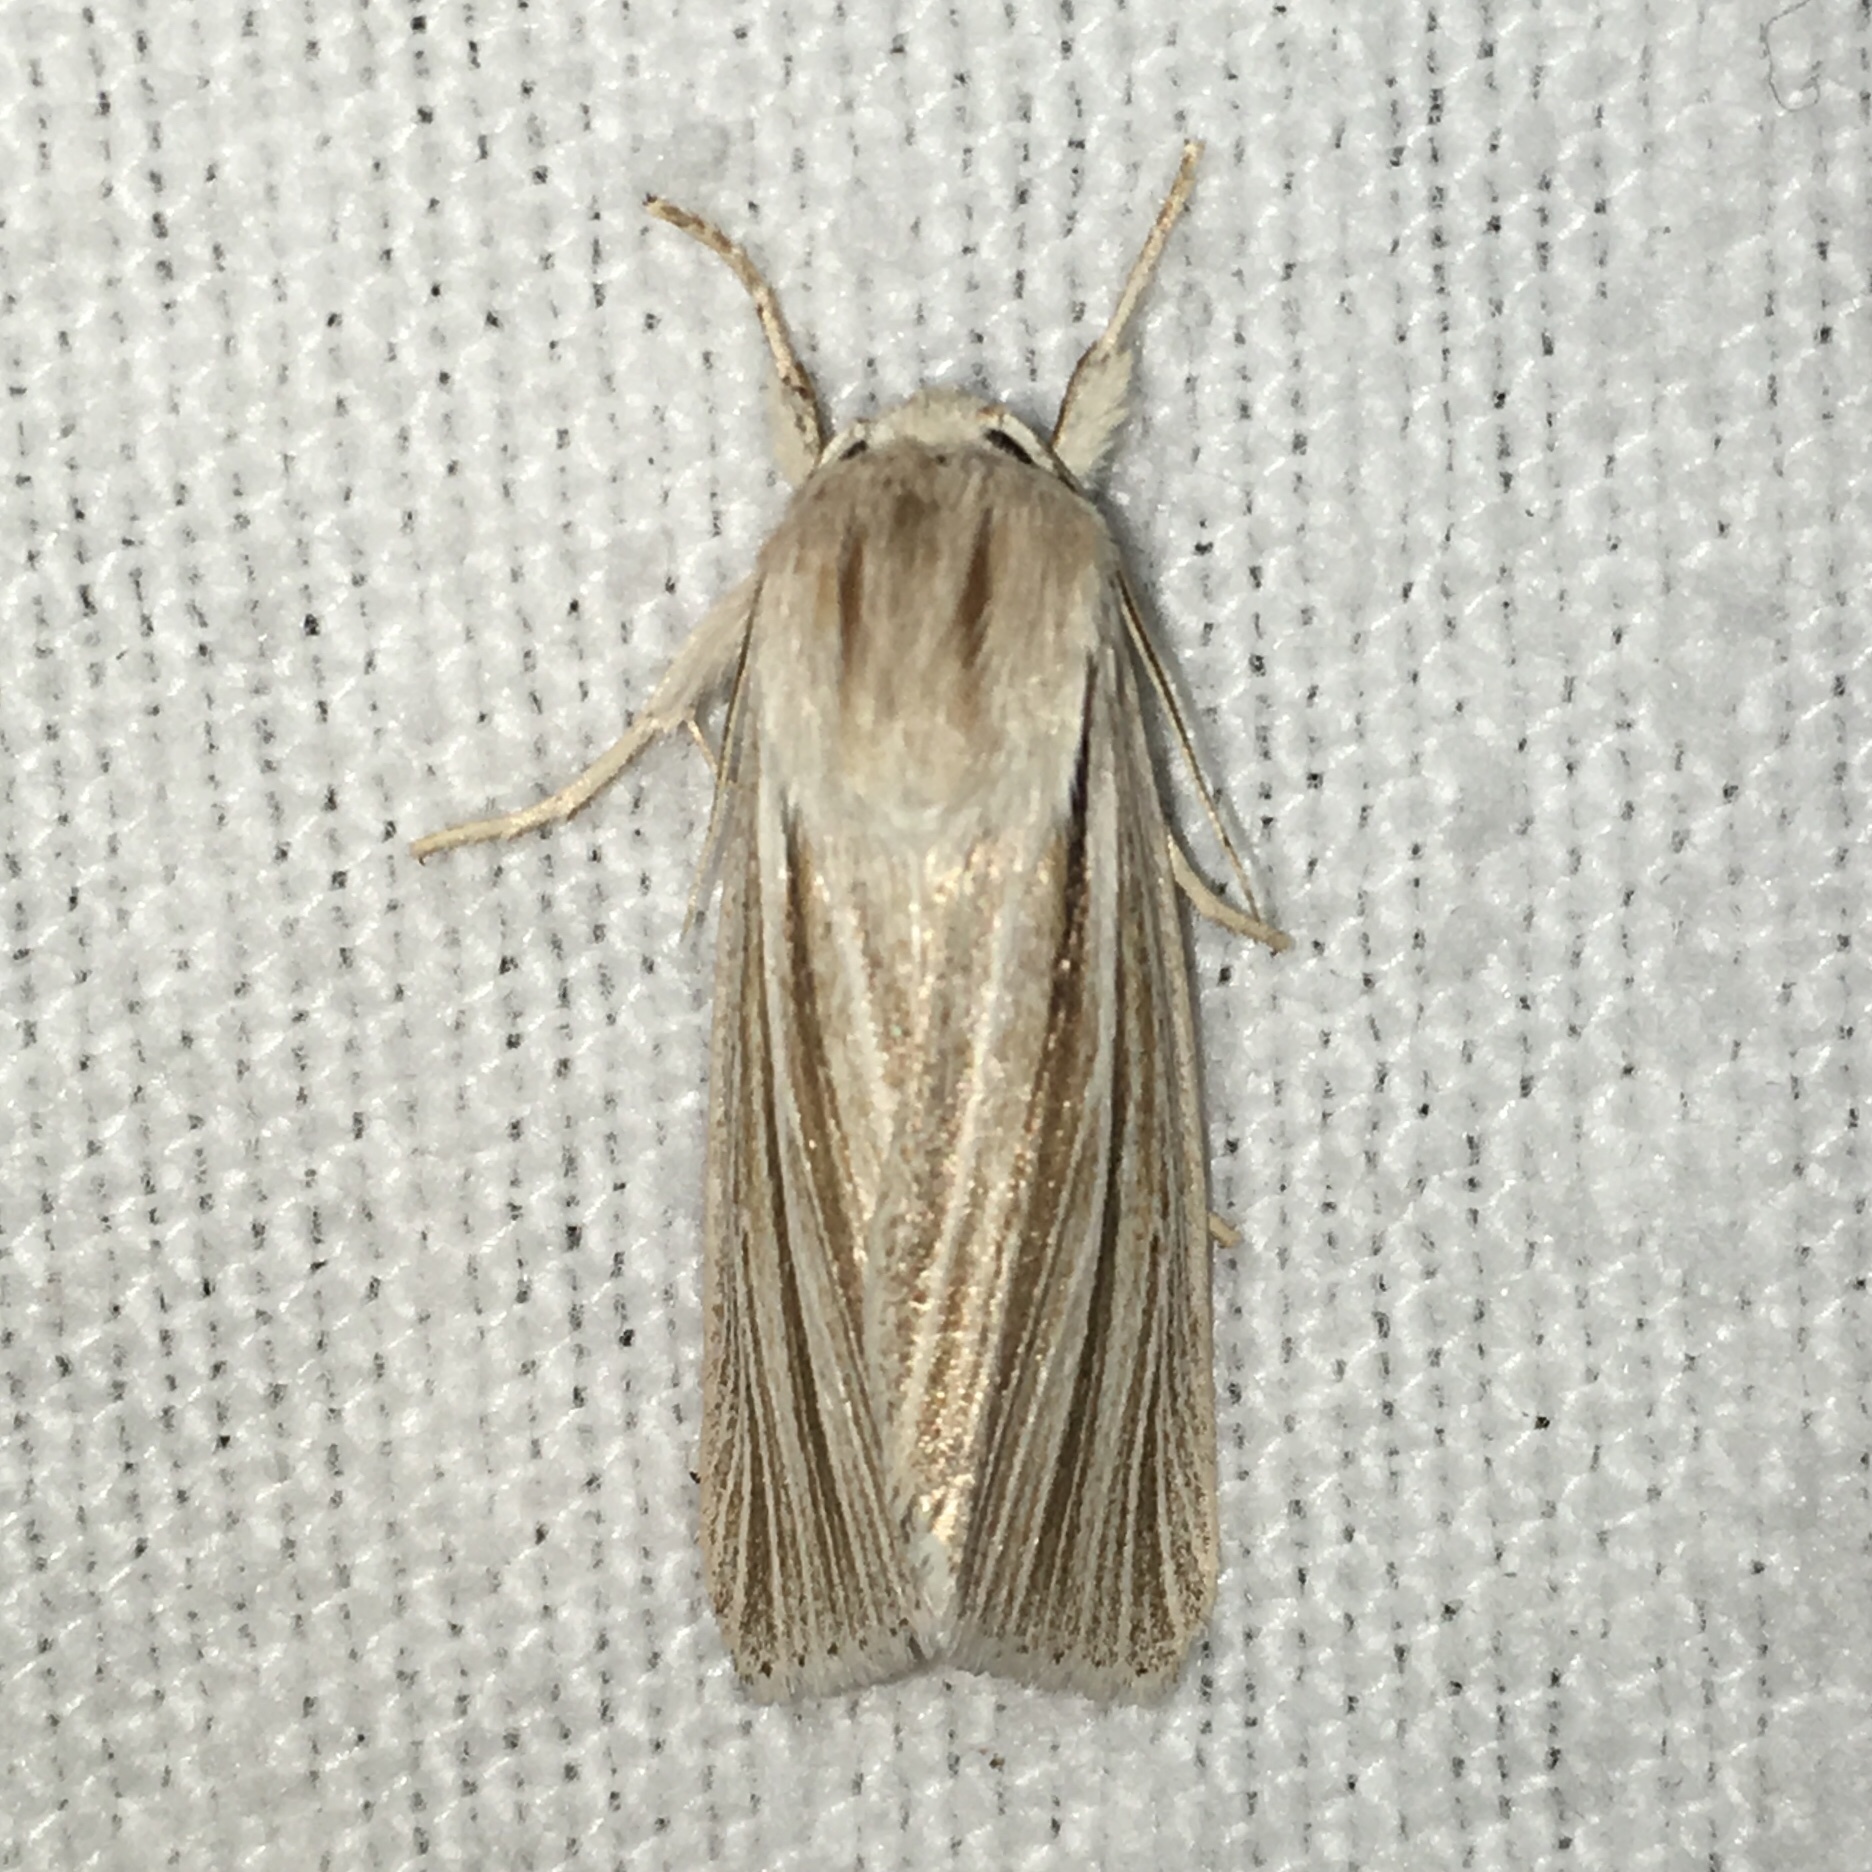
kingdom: Animalia
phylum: Arthropoda
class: Insecta
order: Lepidoptera
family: Noctuidae
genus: Acronicta
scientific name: Acronicta insularis
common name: Henry's marsh moth
